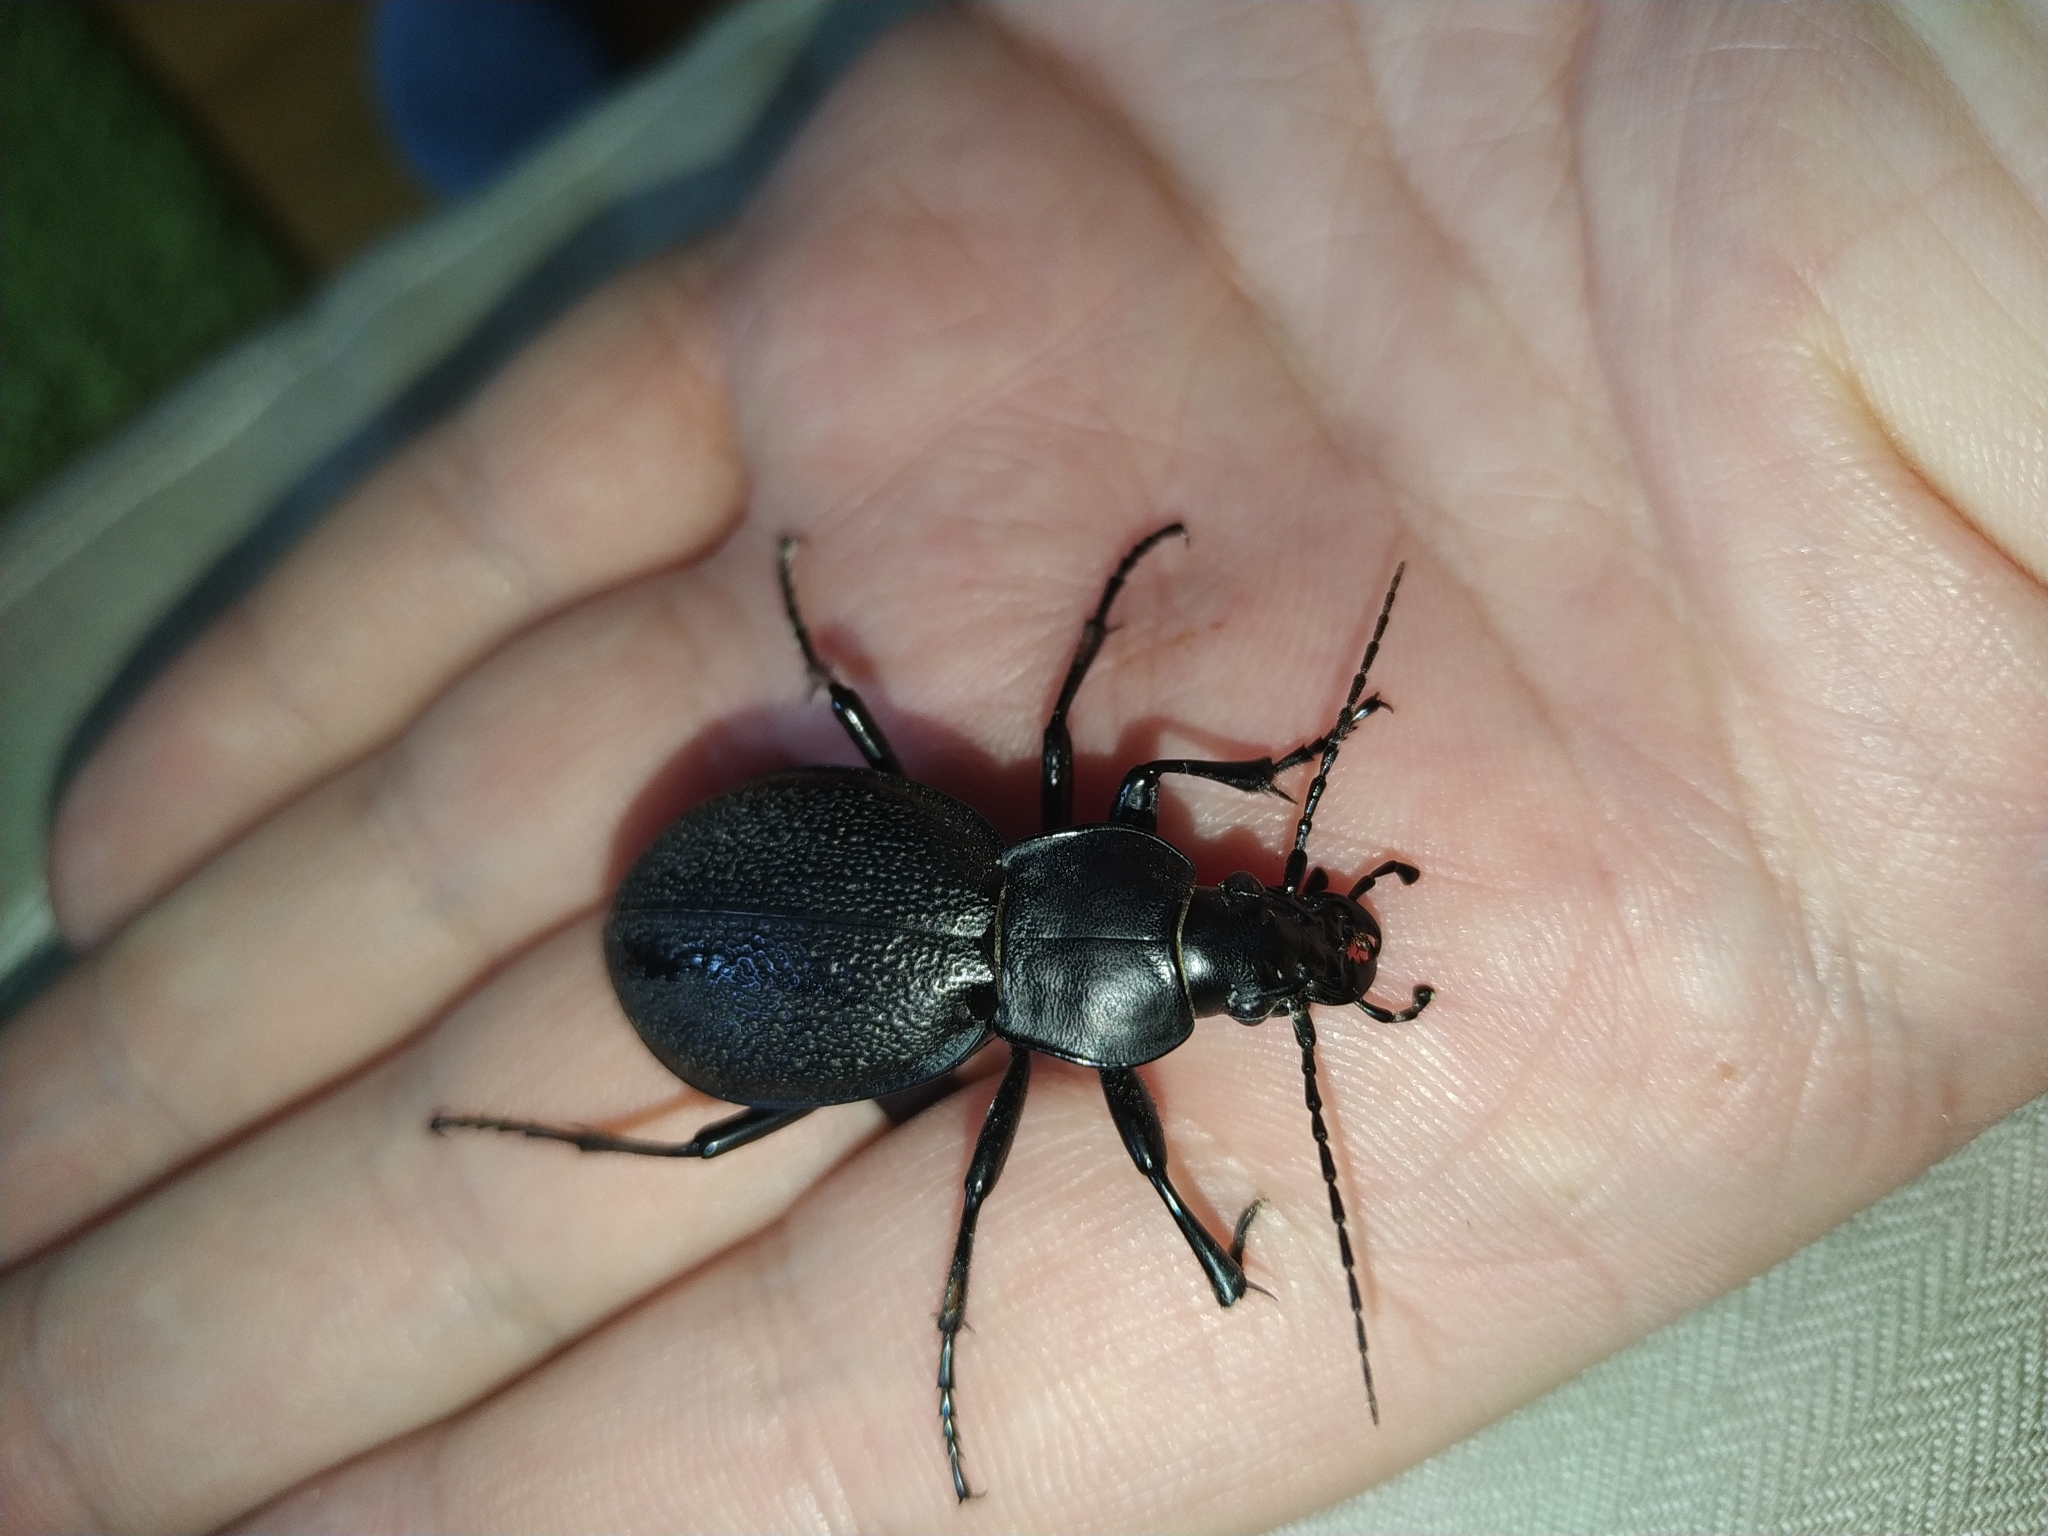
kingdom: Animalia
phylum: Arthropoda
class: Insecta
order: Coleoptera
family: Carabidae
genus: Carabus
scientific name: Carabus coriaceus
